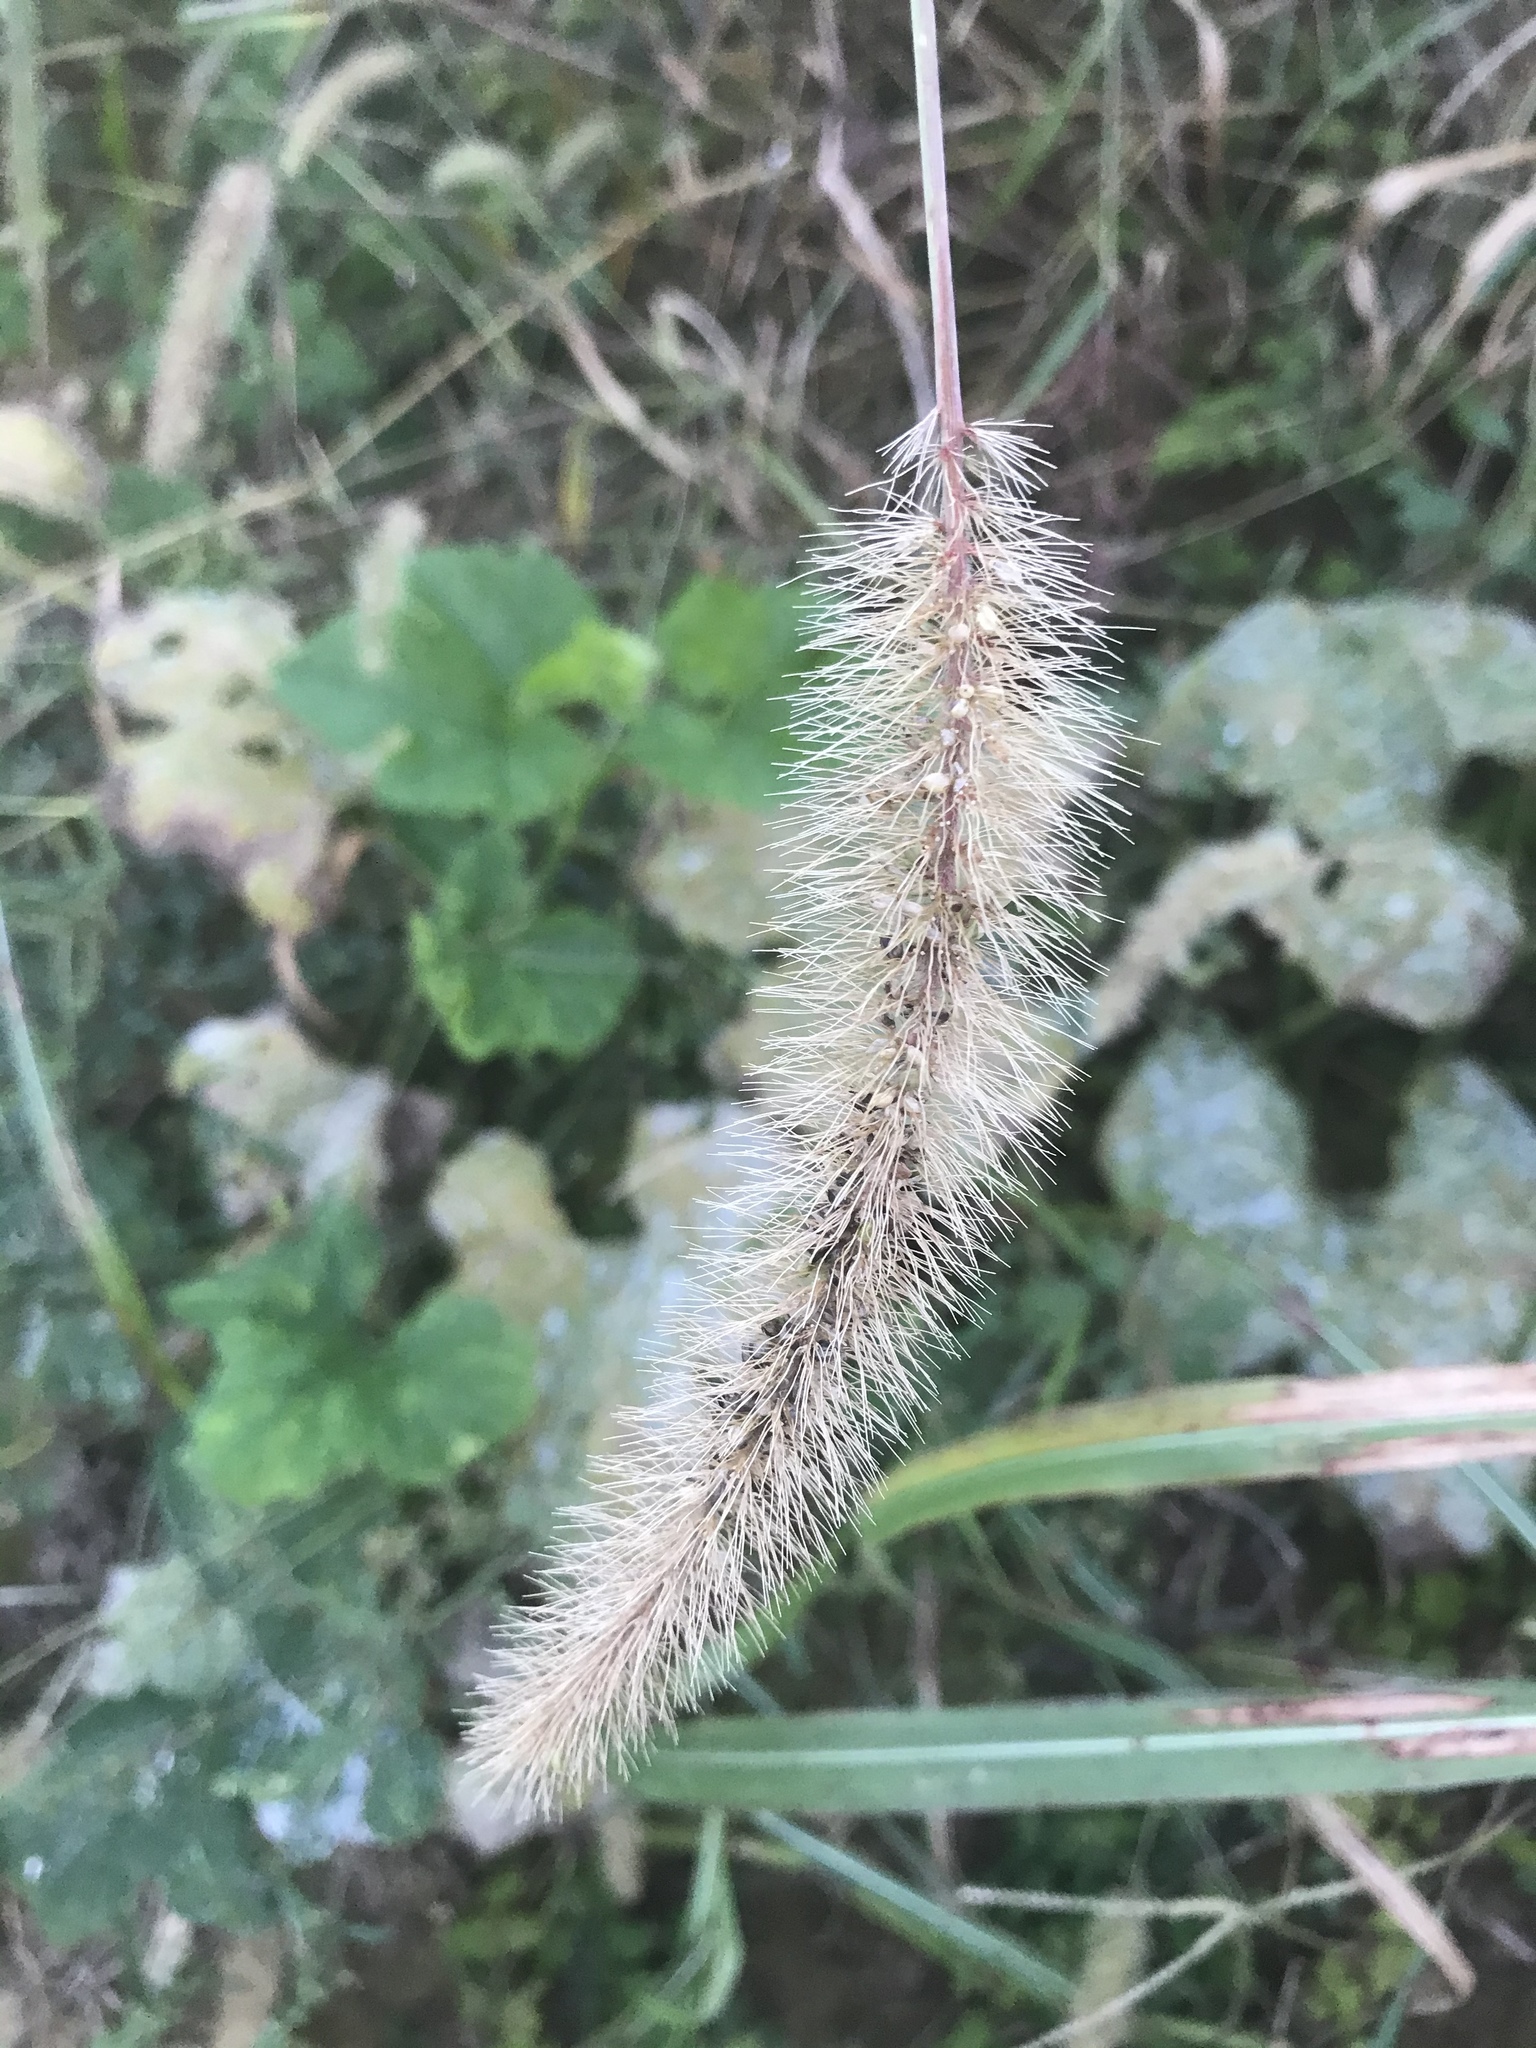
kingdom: Plantae
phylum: Tracheophyta
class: Liliopsida
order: Poales
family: Poaceae
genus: Setaria
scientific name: Setaria faberi
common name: Nodding bristle-grass
